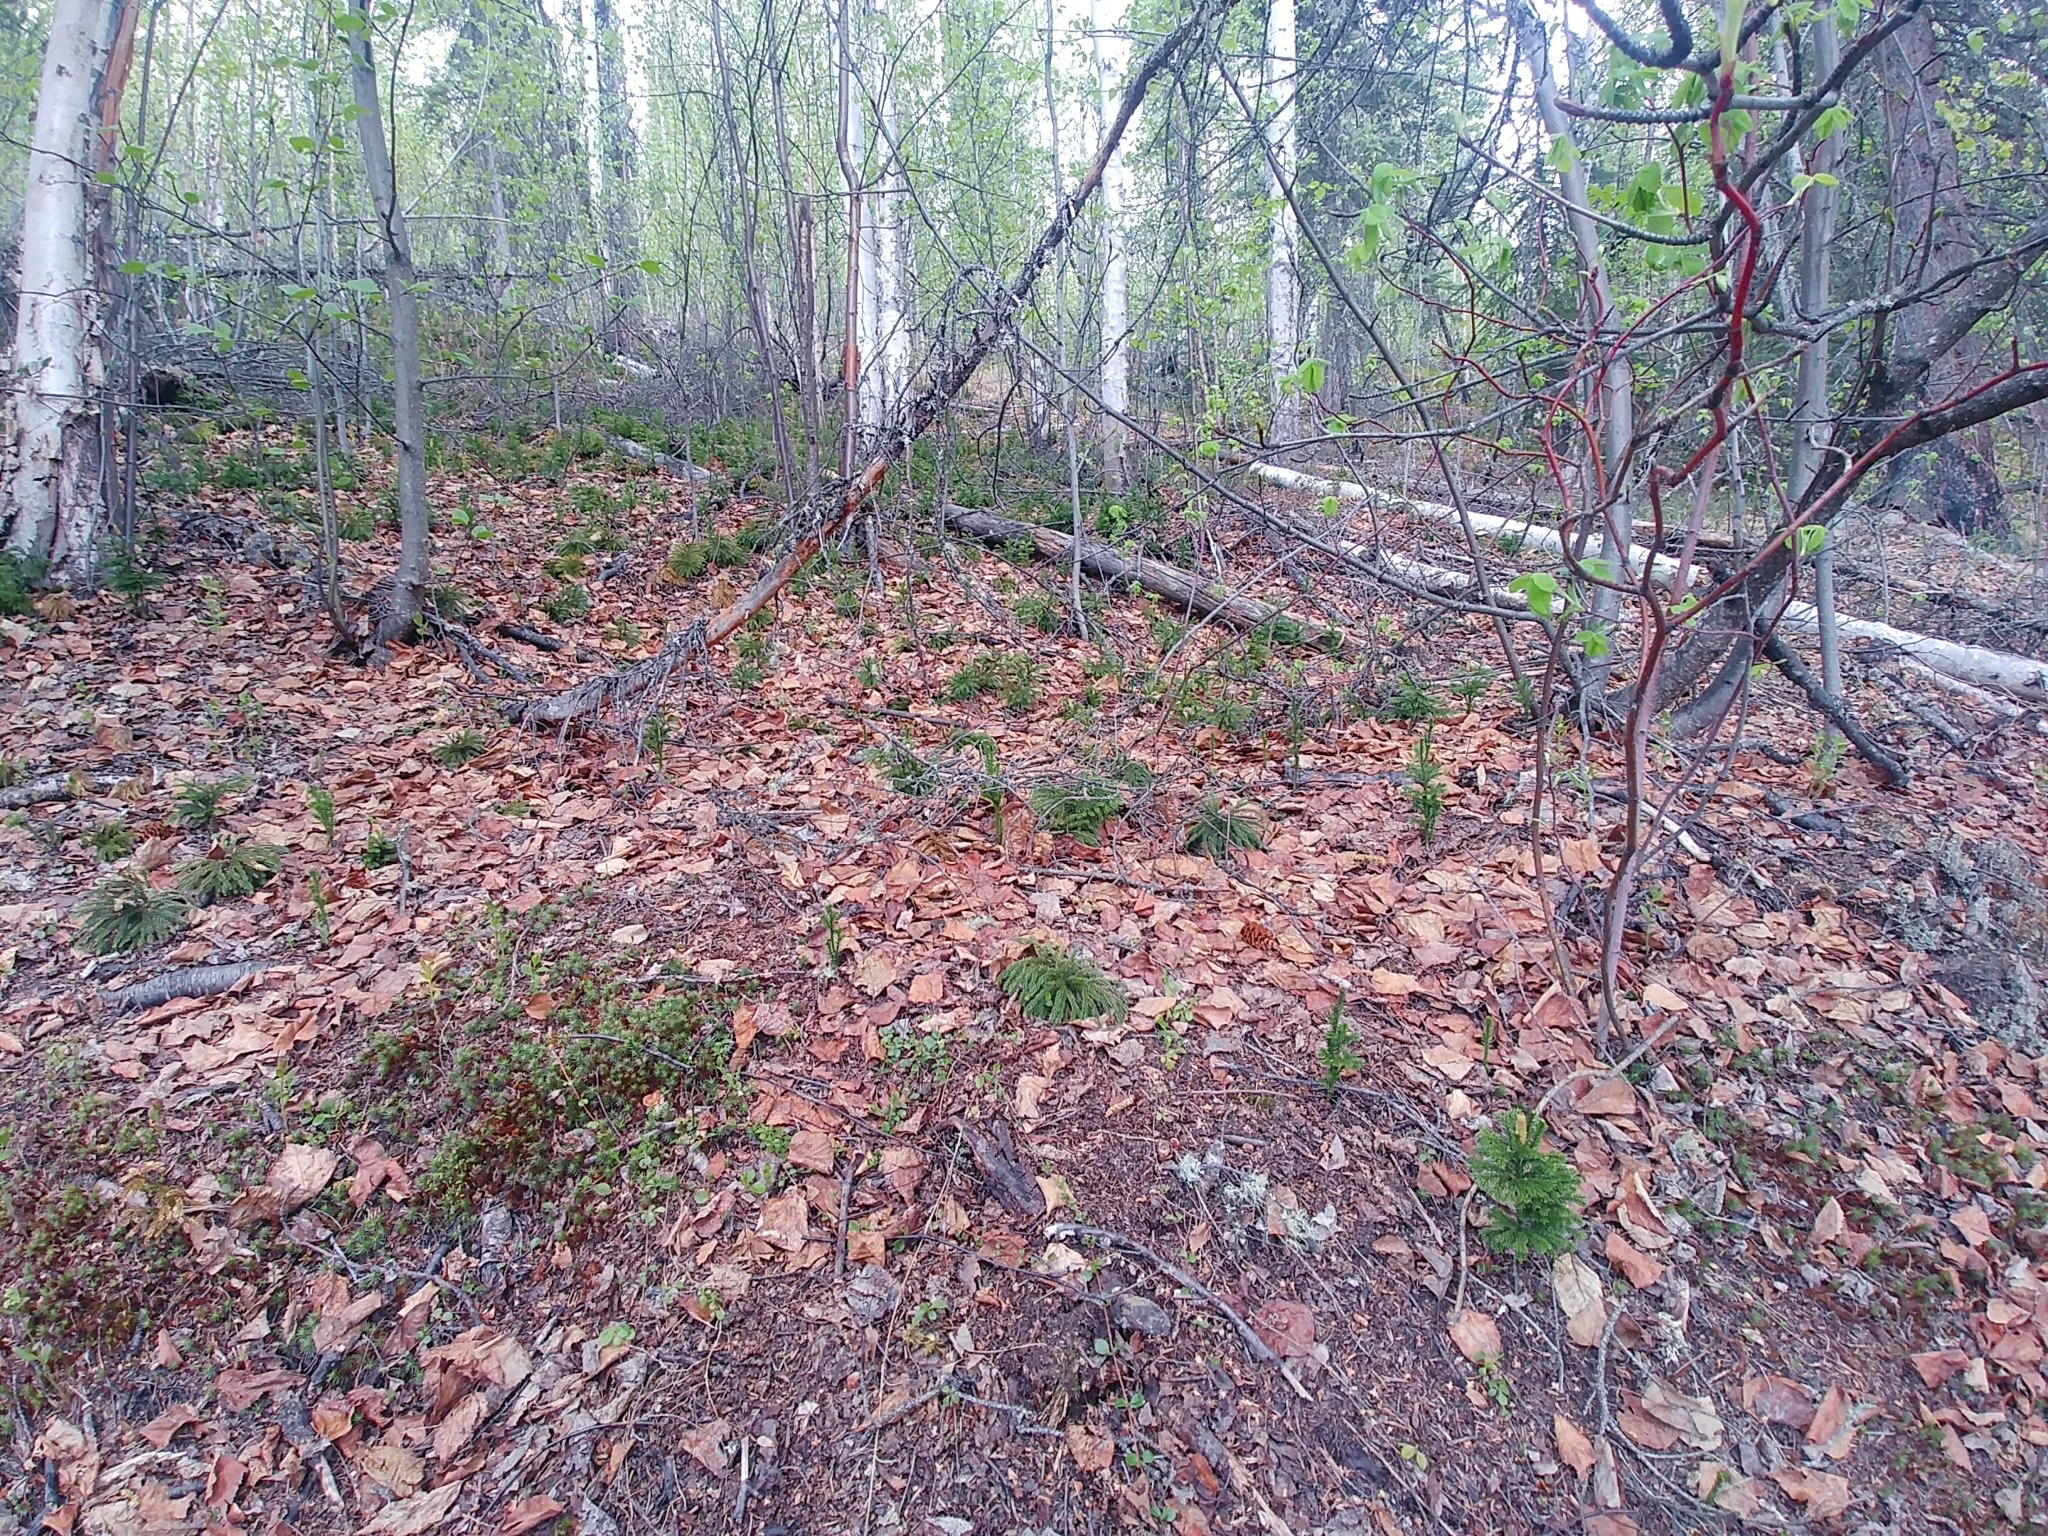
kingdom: Plantae
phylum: Tracheophyta
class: Lycopodiopsida
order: Lycopodiales
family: Lycopodiaceae
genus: Dendrolycopodium
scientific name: Dendrolycopodium dendroideum
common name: Northern tree-clubmoss
